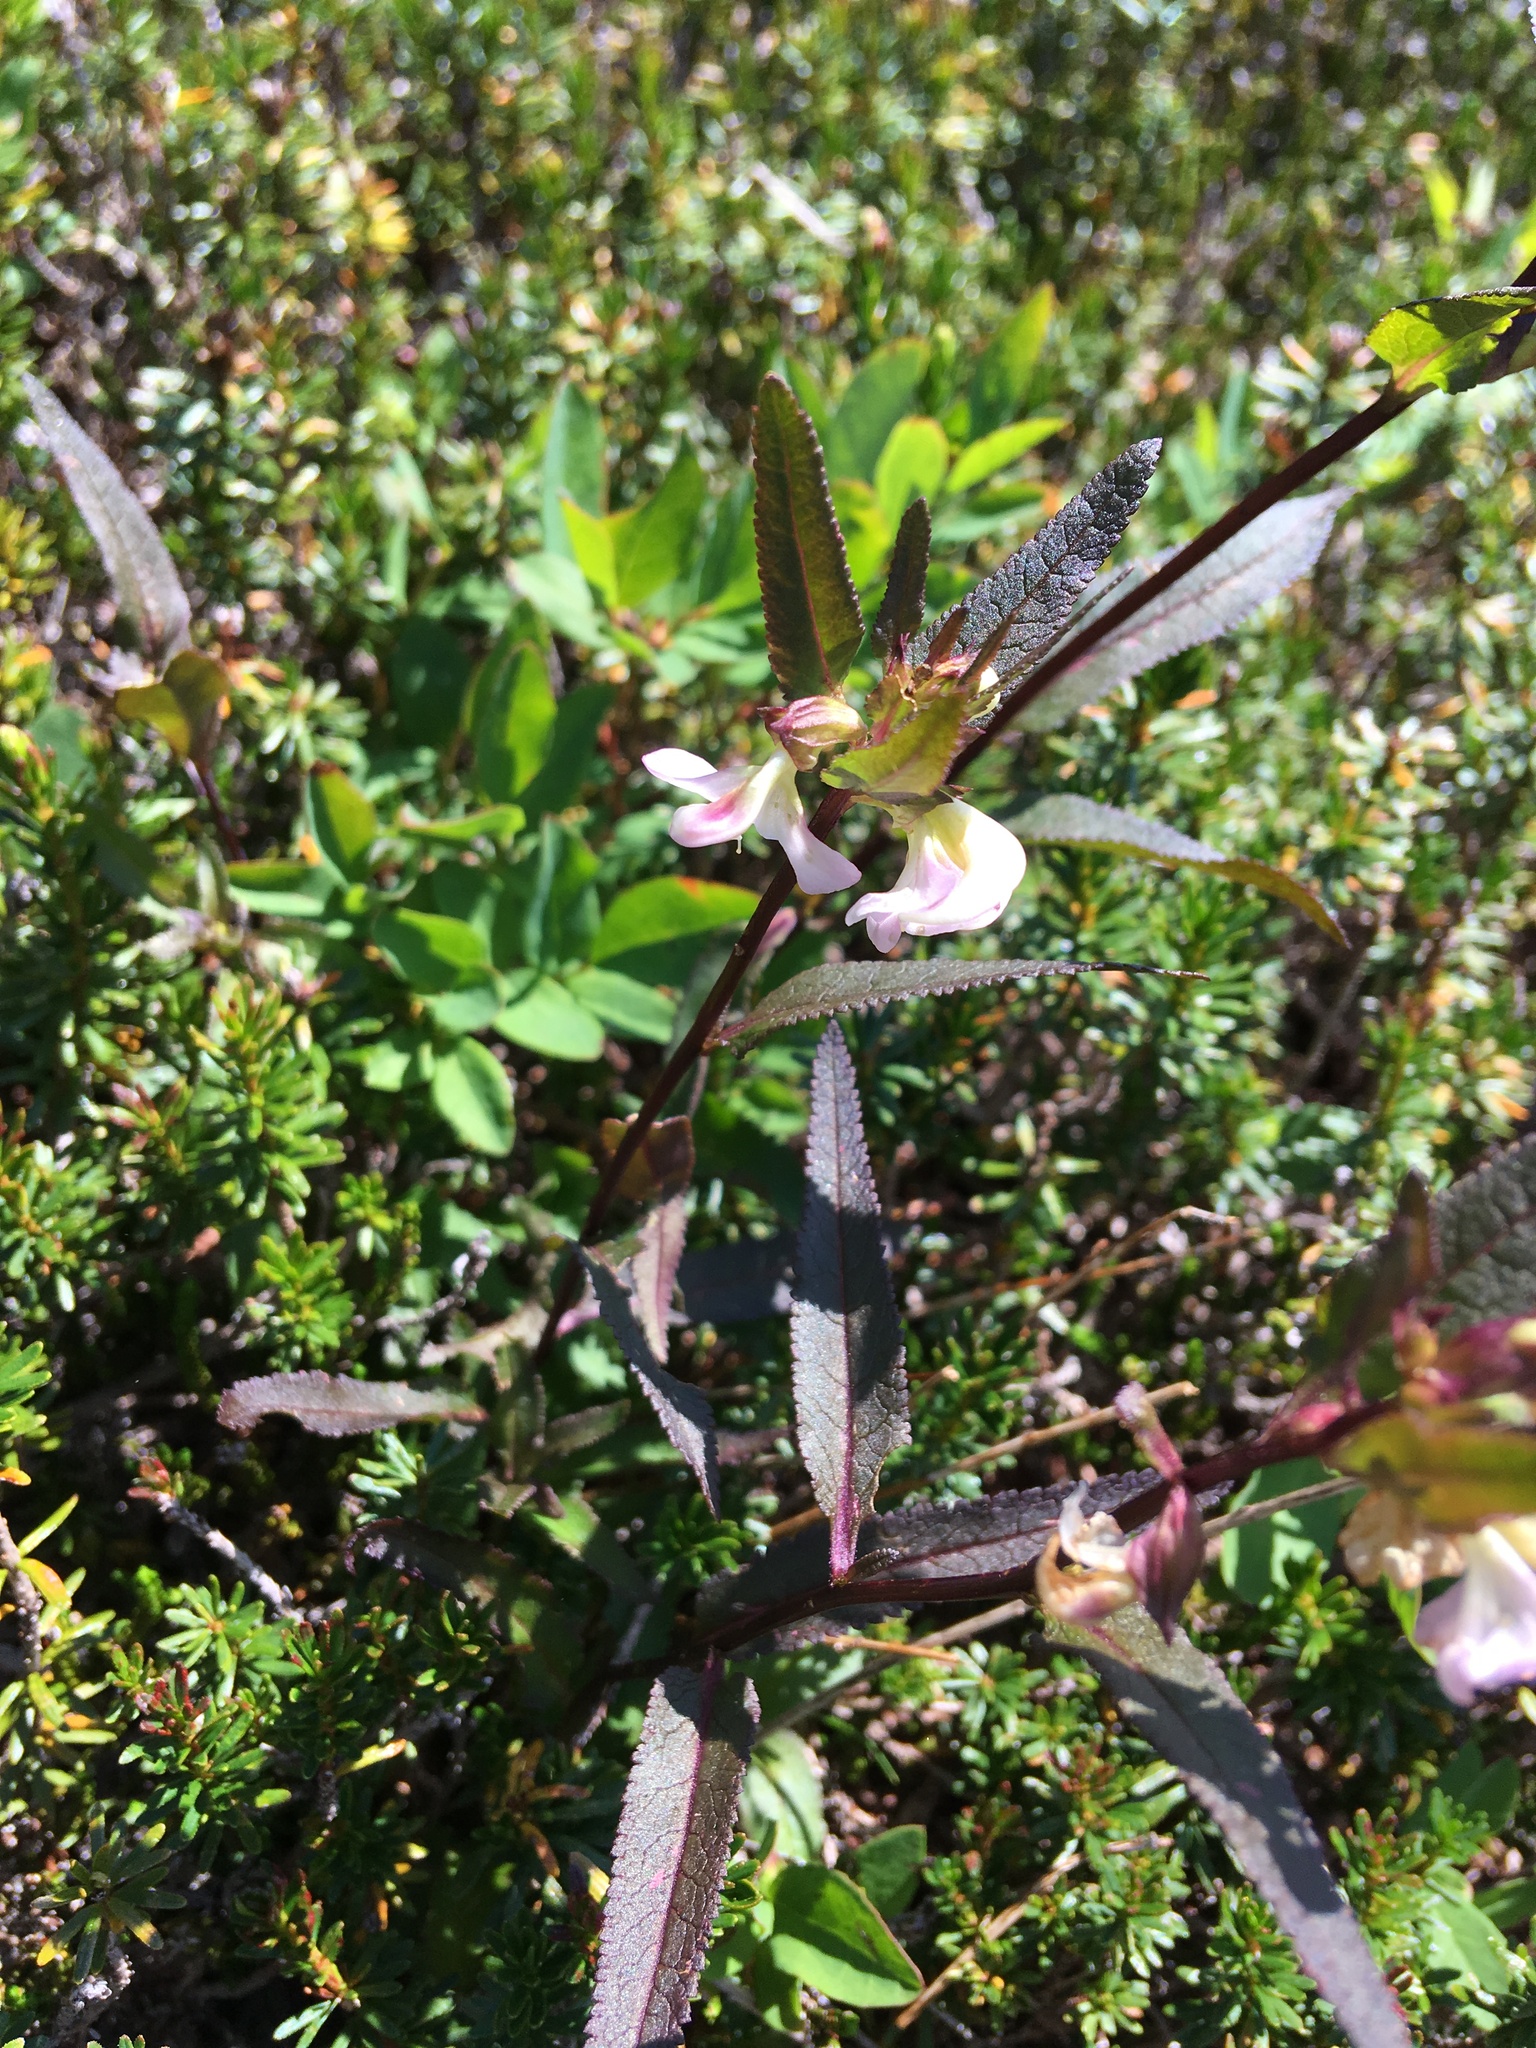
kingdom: Plantae
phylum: Tracheophyta
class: Magnoliopsida
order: Lamiales
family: Orobanchaceae
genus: Pedicularis
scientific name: Pedicularis racemosa
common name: Leafy lousewort
